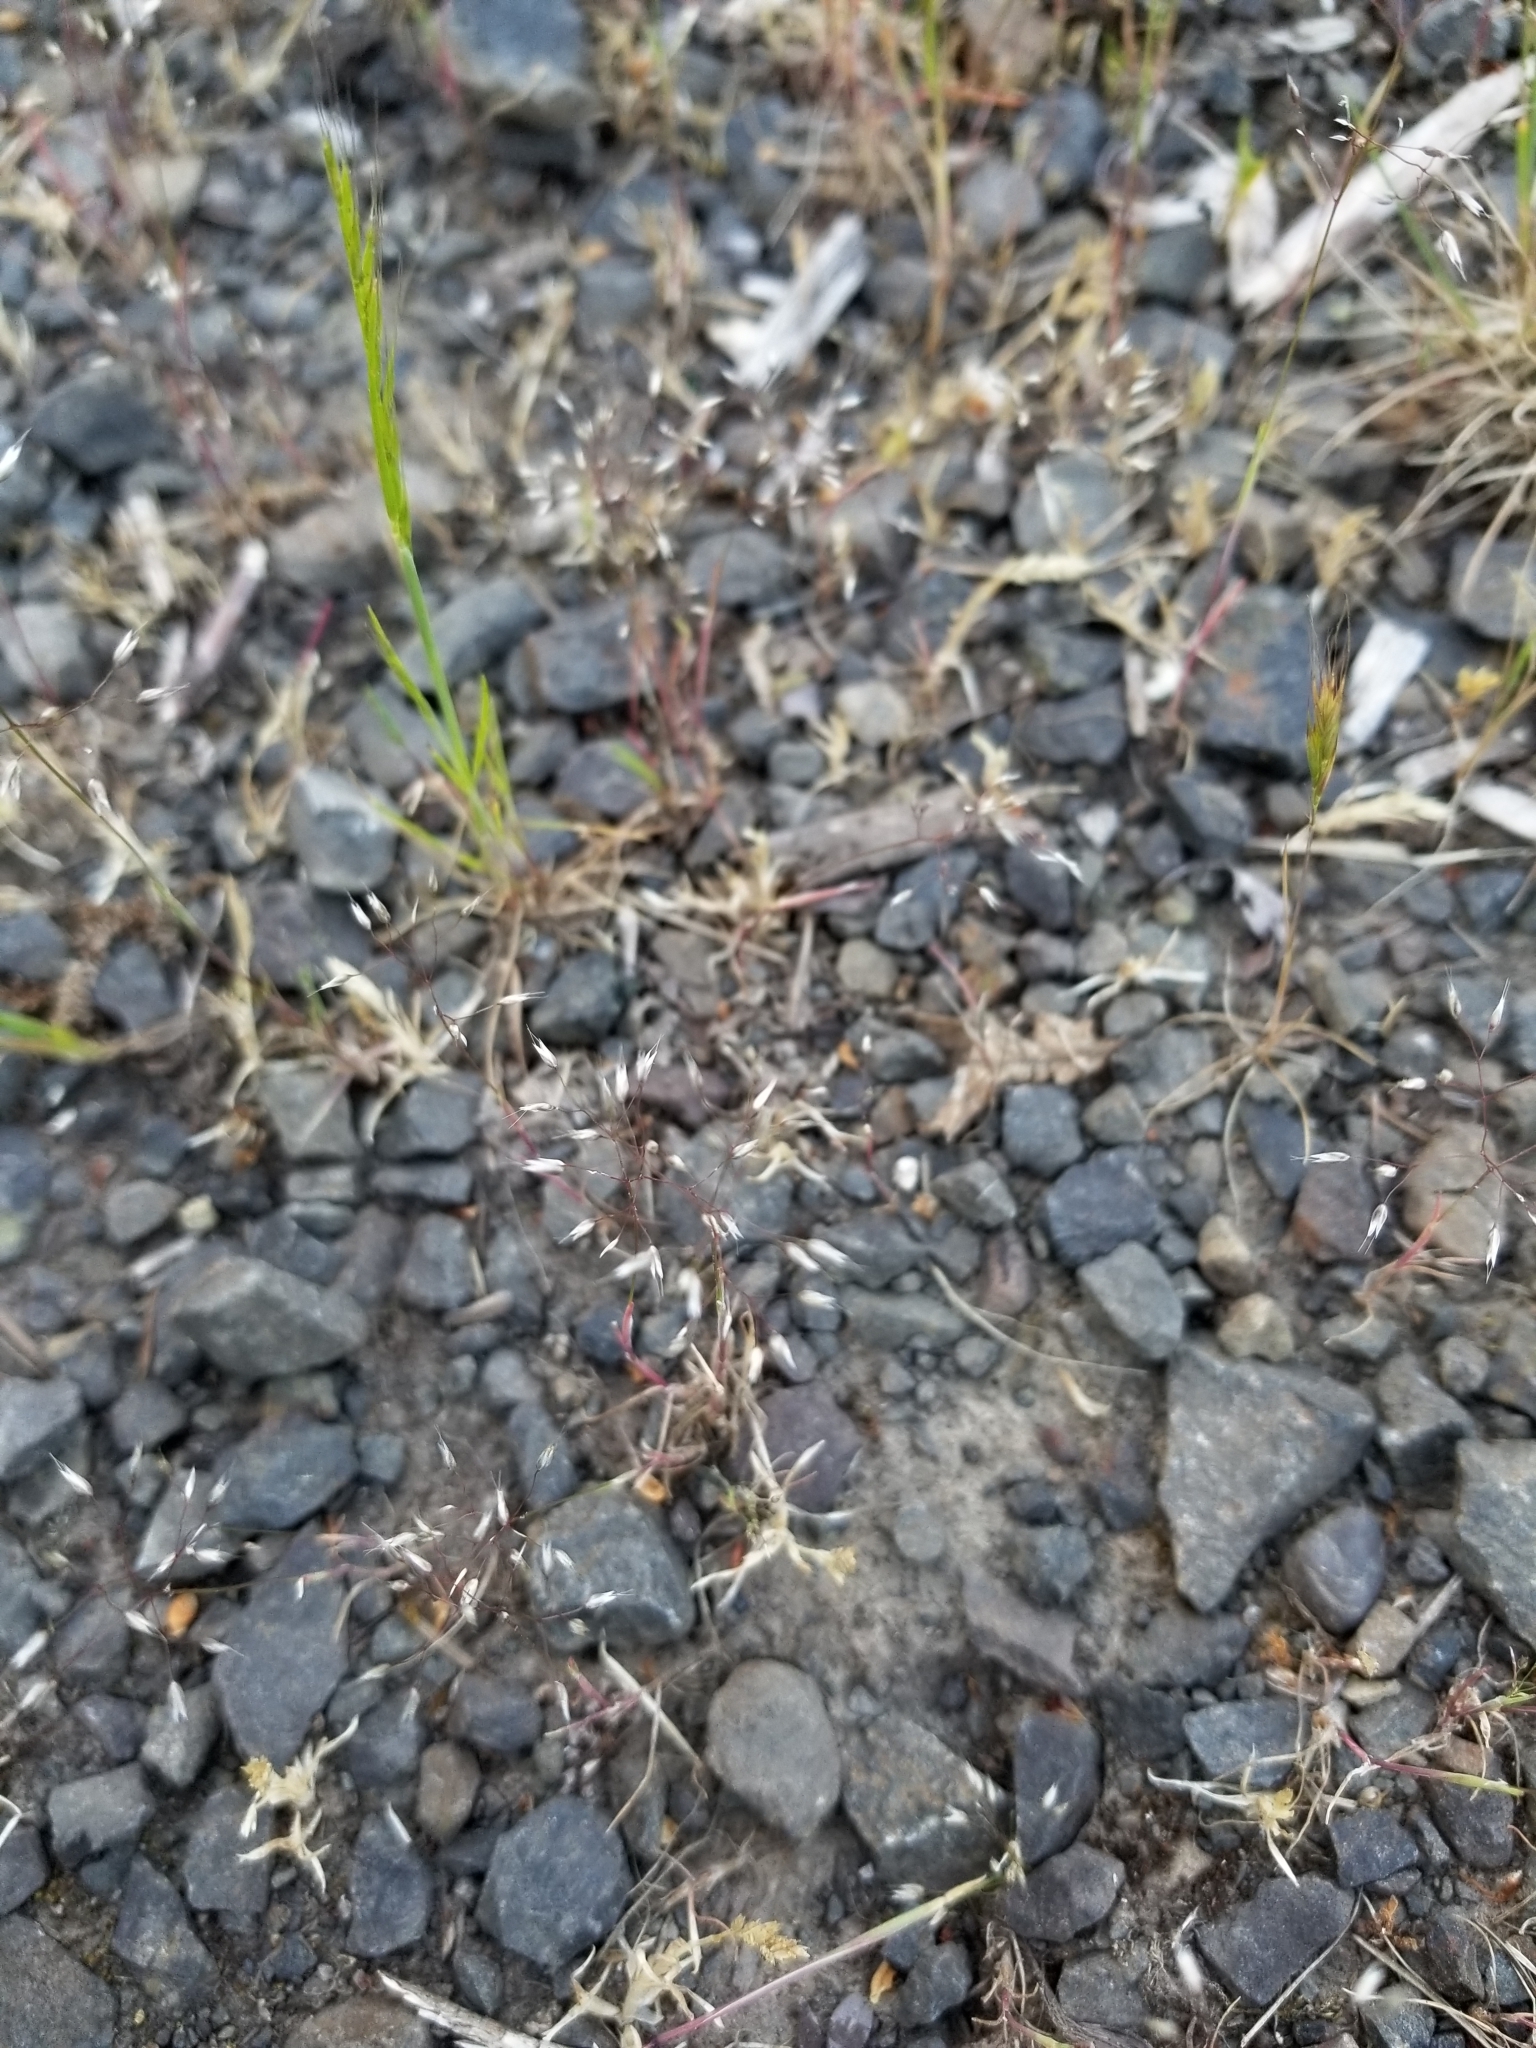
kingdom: Plantae
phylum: Tracheophyta
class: Liliopsida
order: Poales
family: Poaceae
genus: Aira
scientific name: Aira caryophyllea
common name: Silver hairgrass
